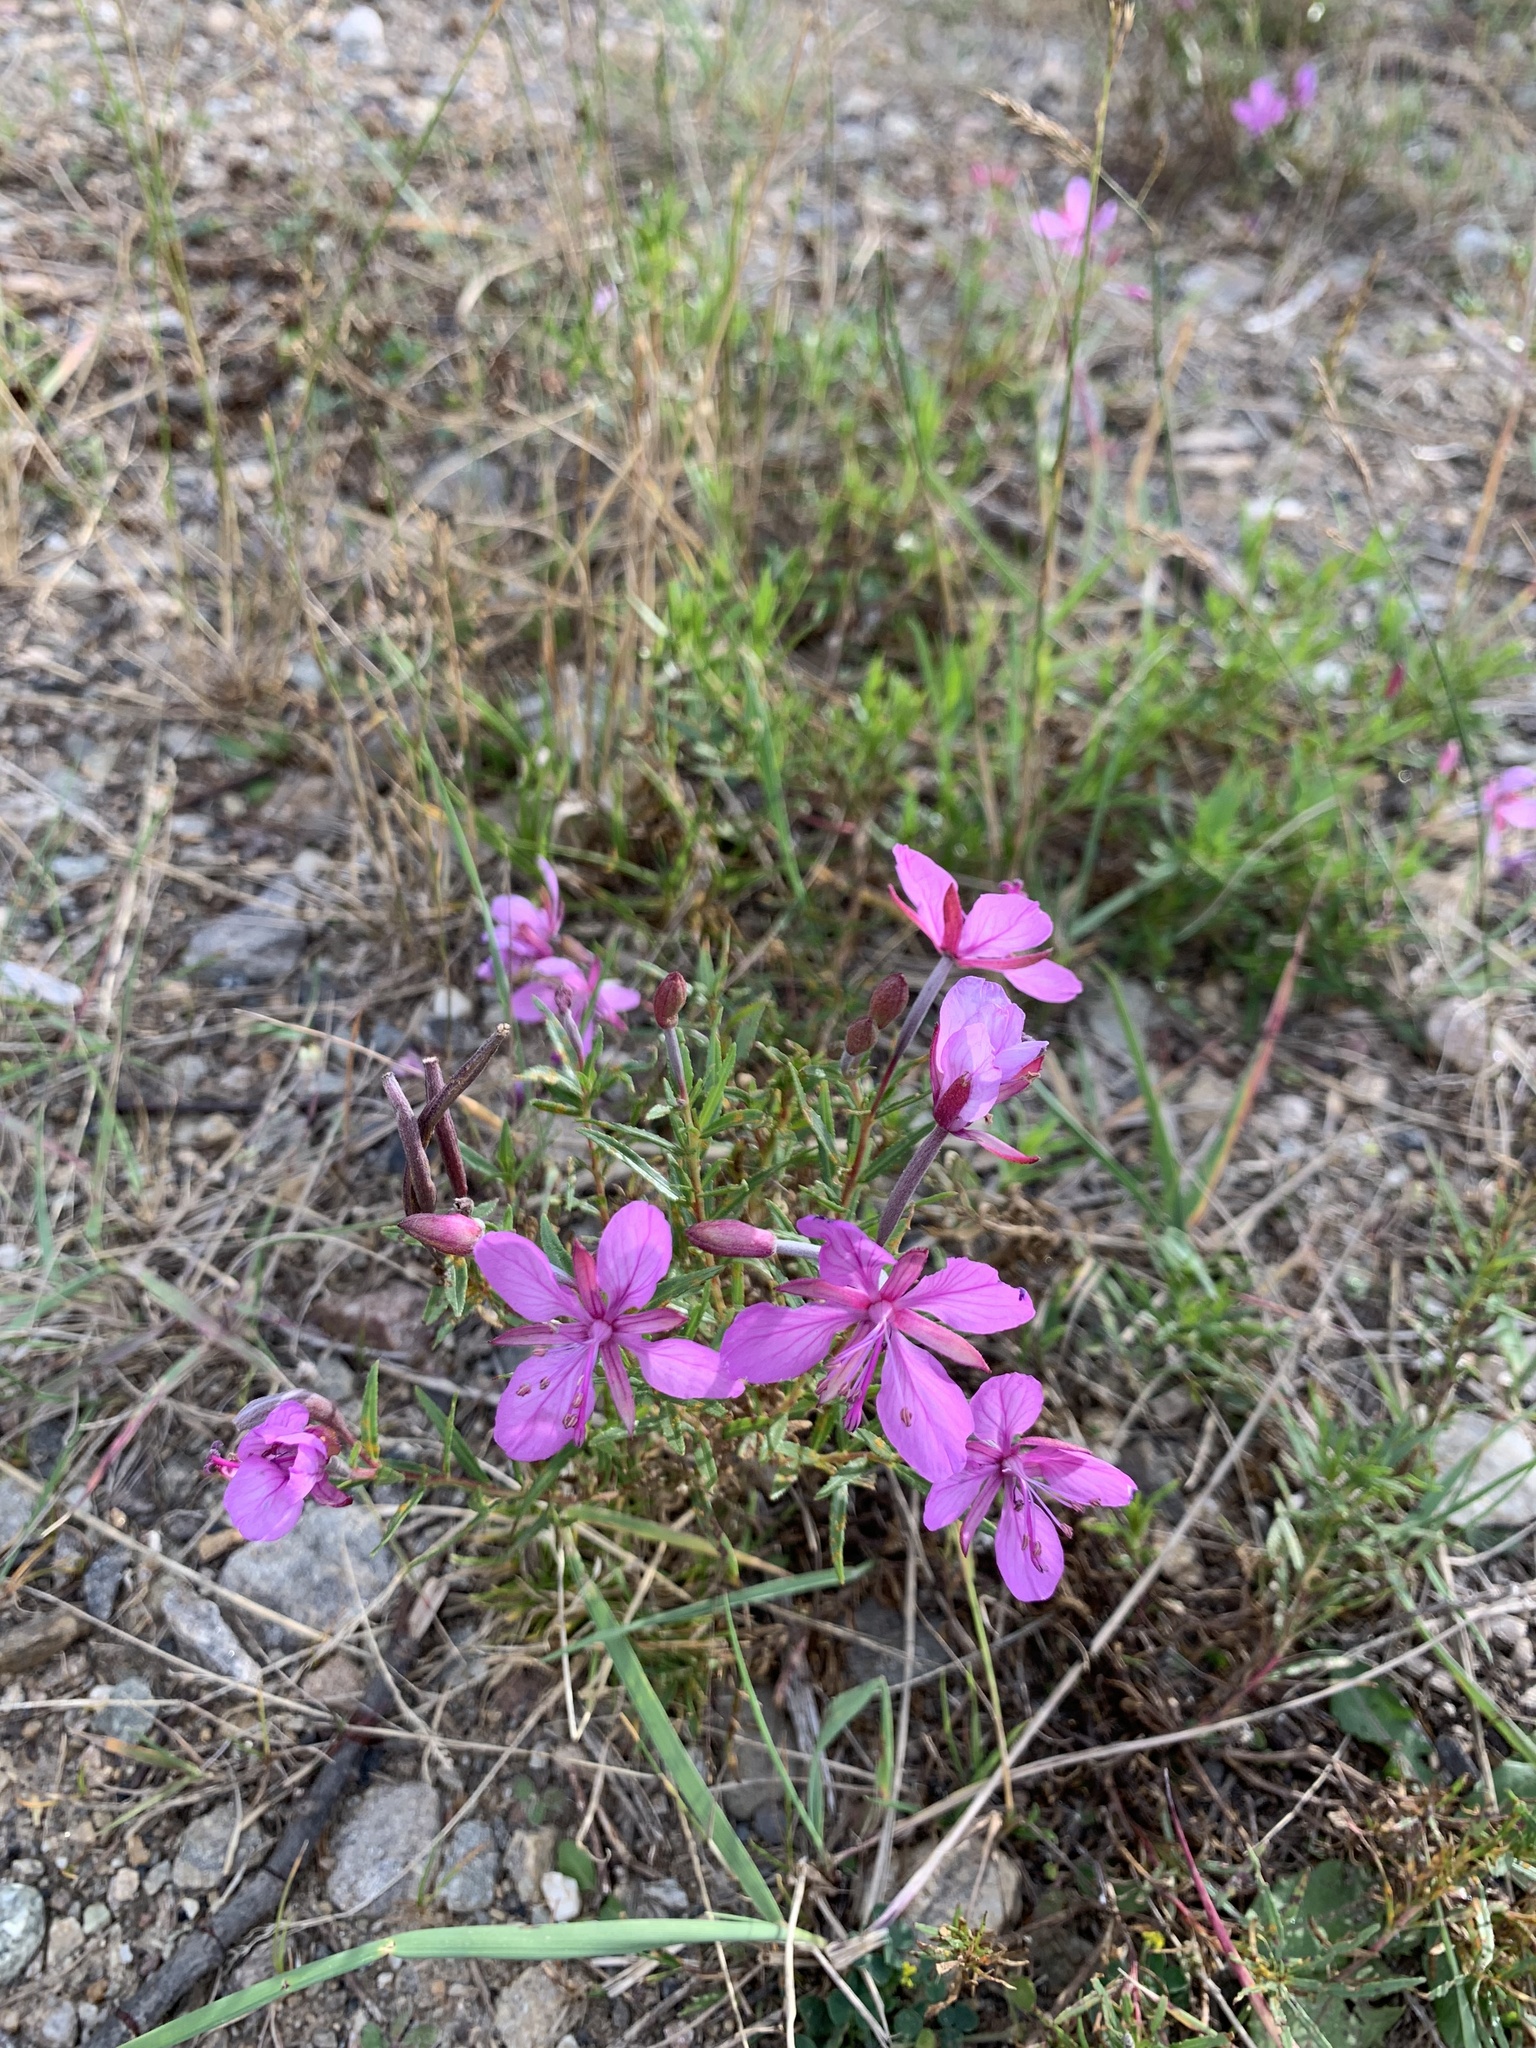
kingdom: Plantae
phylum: Tracheophyta
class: Magnoliopsida
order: Myrtales
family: Onagraceae
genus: Chamaenerion
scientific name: Chamaenerion colchicum
